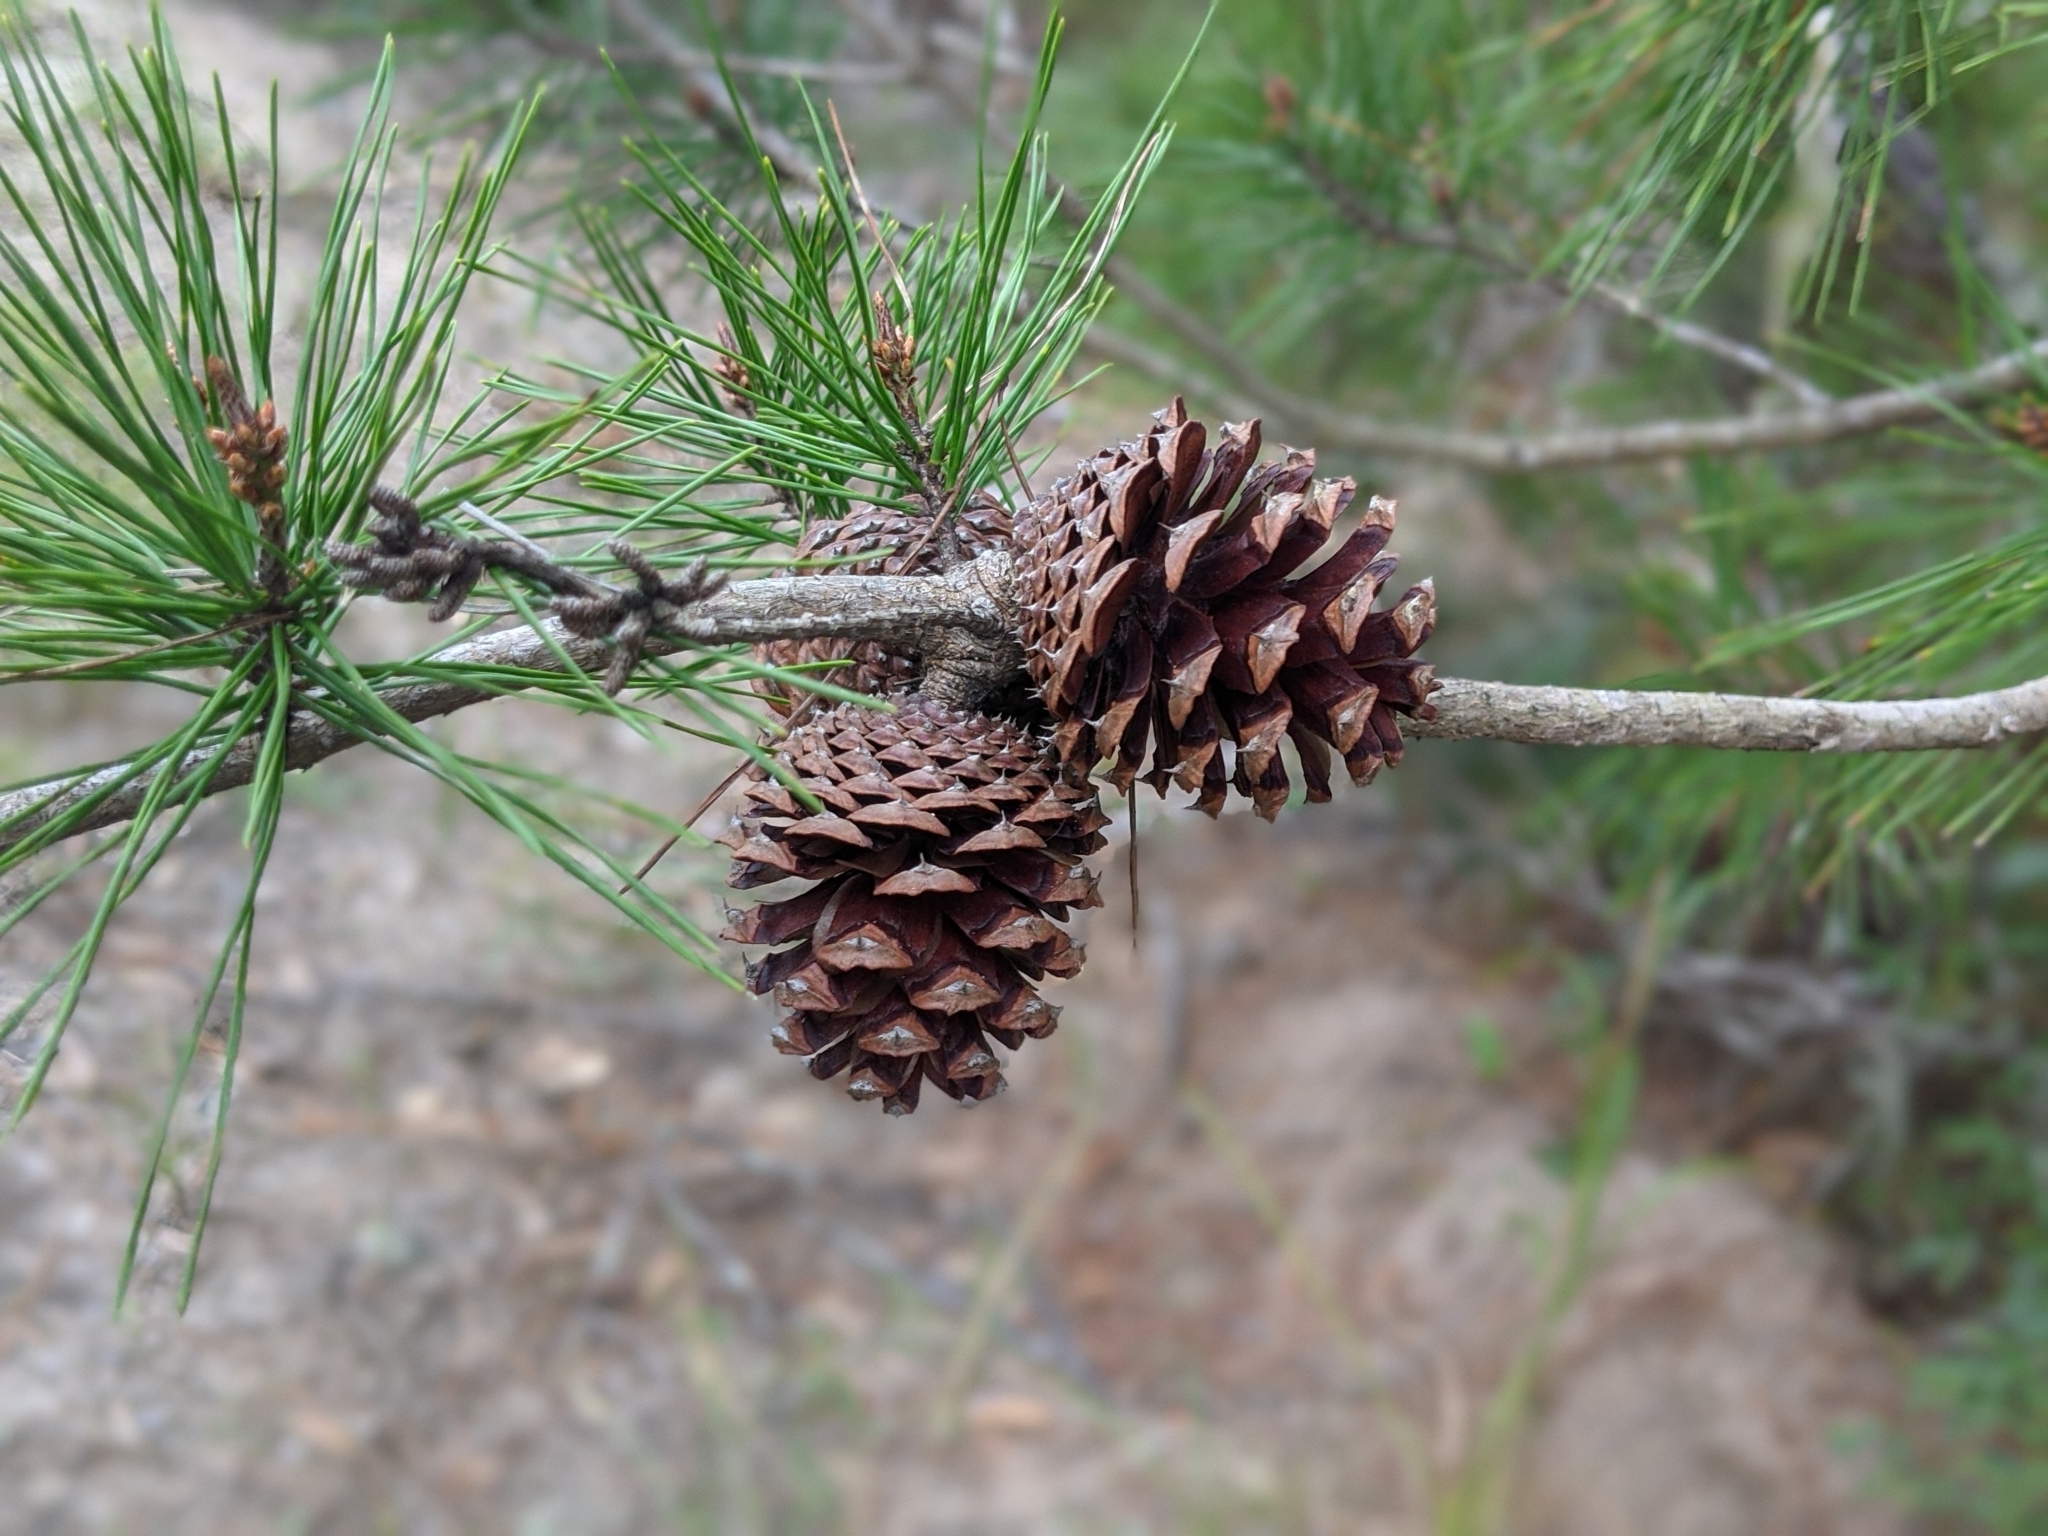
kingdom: Plantae
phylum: Tracheophyta
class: Pinopsida
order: Pinales
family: Pinaceae
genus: Pinus
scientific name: Pinus clausa
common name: Sand pine
